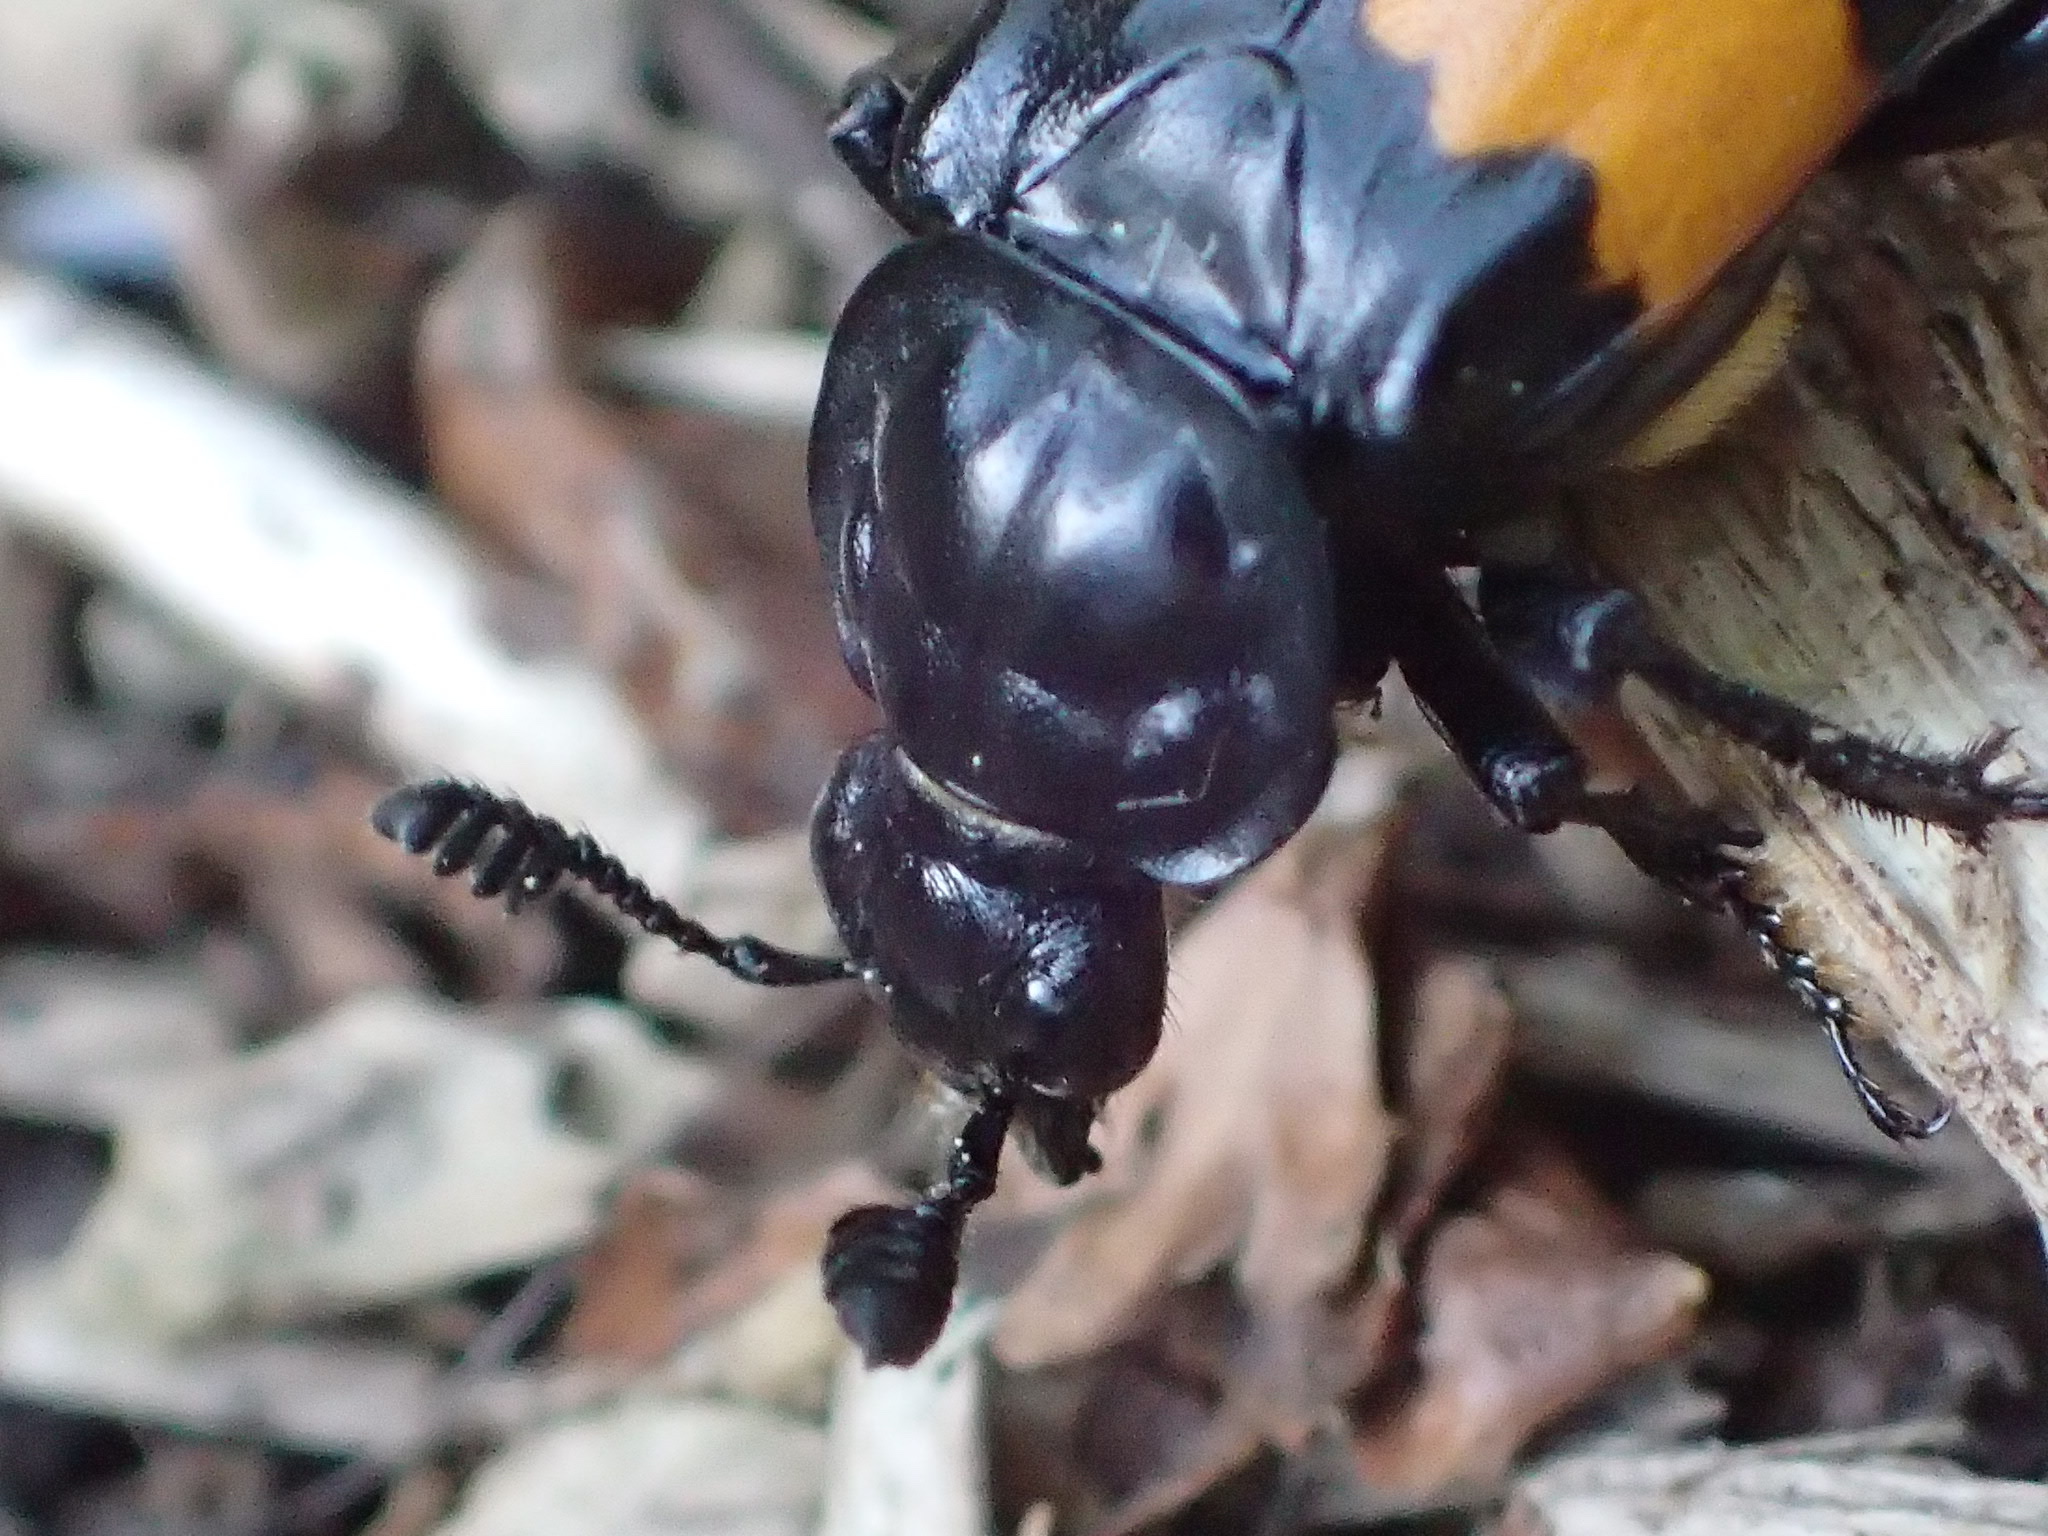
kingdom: Animalia
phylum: Arthropoda
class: Insecta
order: Coleoptera
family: Staphylinidae
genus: Nicrophorus
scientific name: Nicrophorus defodiens
